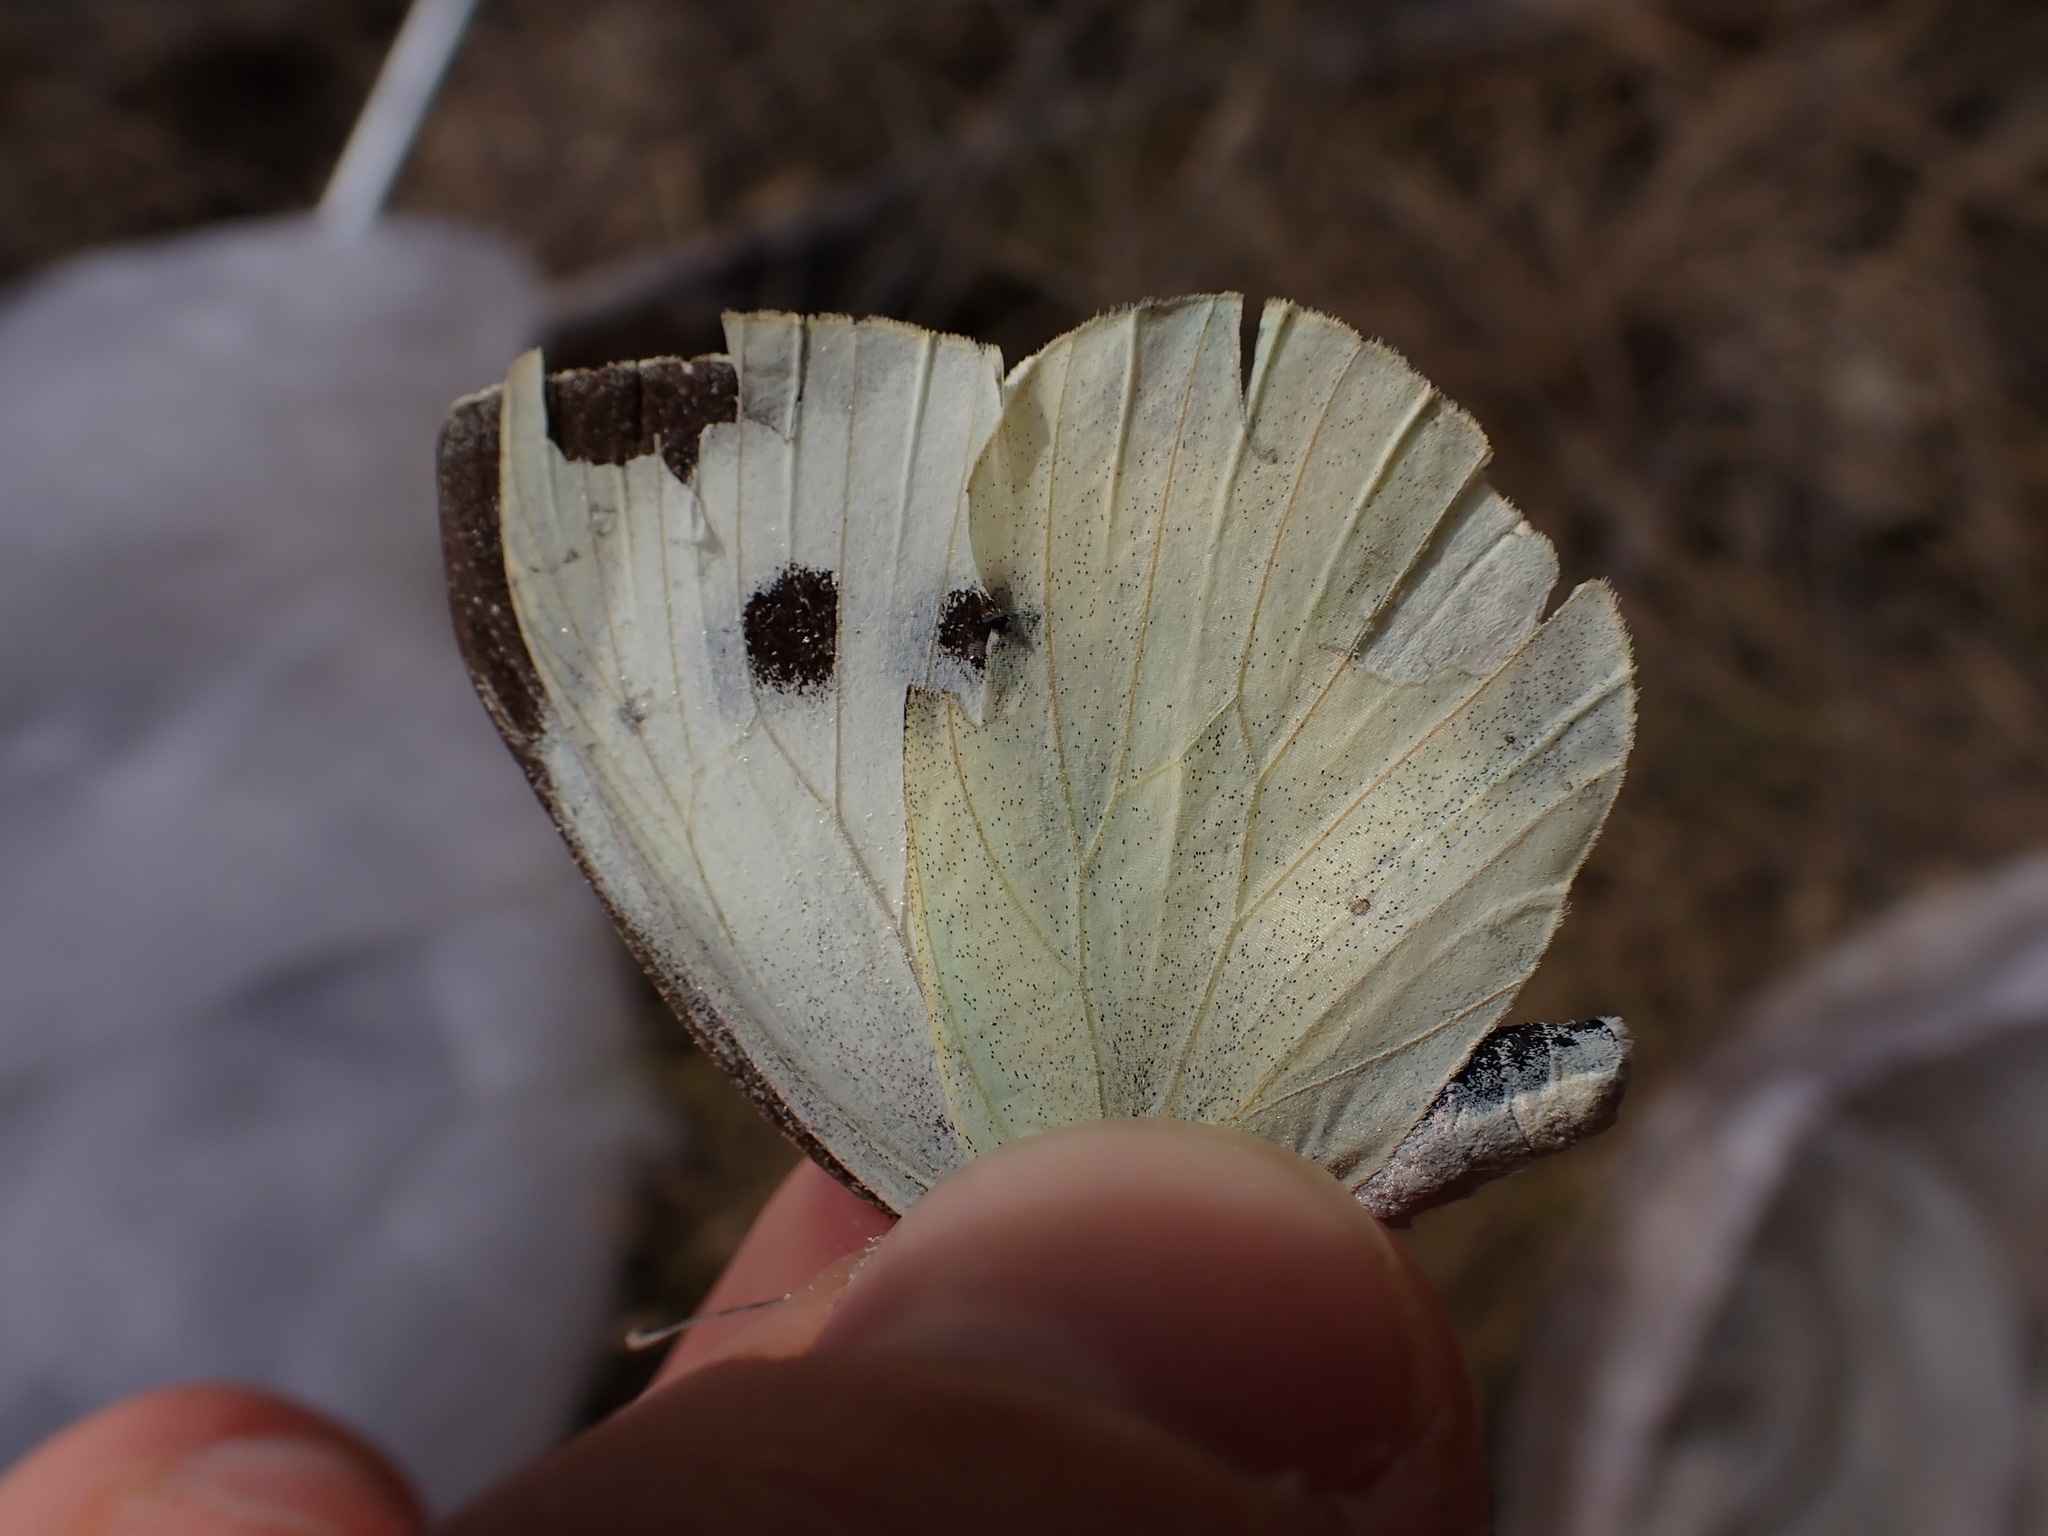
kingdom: Animalia
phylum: Arthropoda
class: Insecta
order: Lepidoptera
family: Pieridae
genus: Pieris
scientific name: Pieris brassicae
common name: Large white
